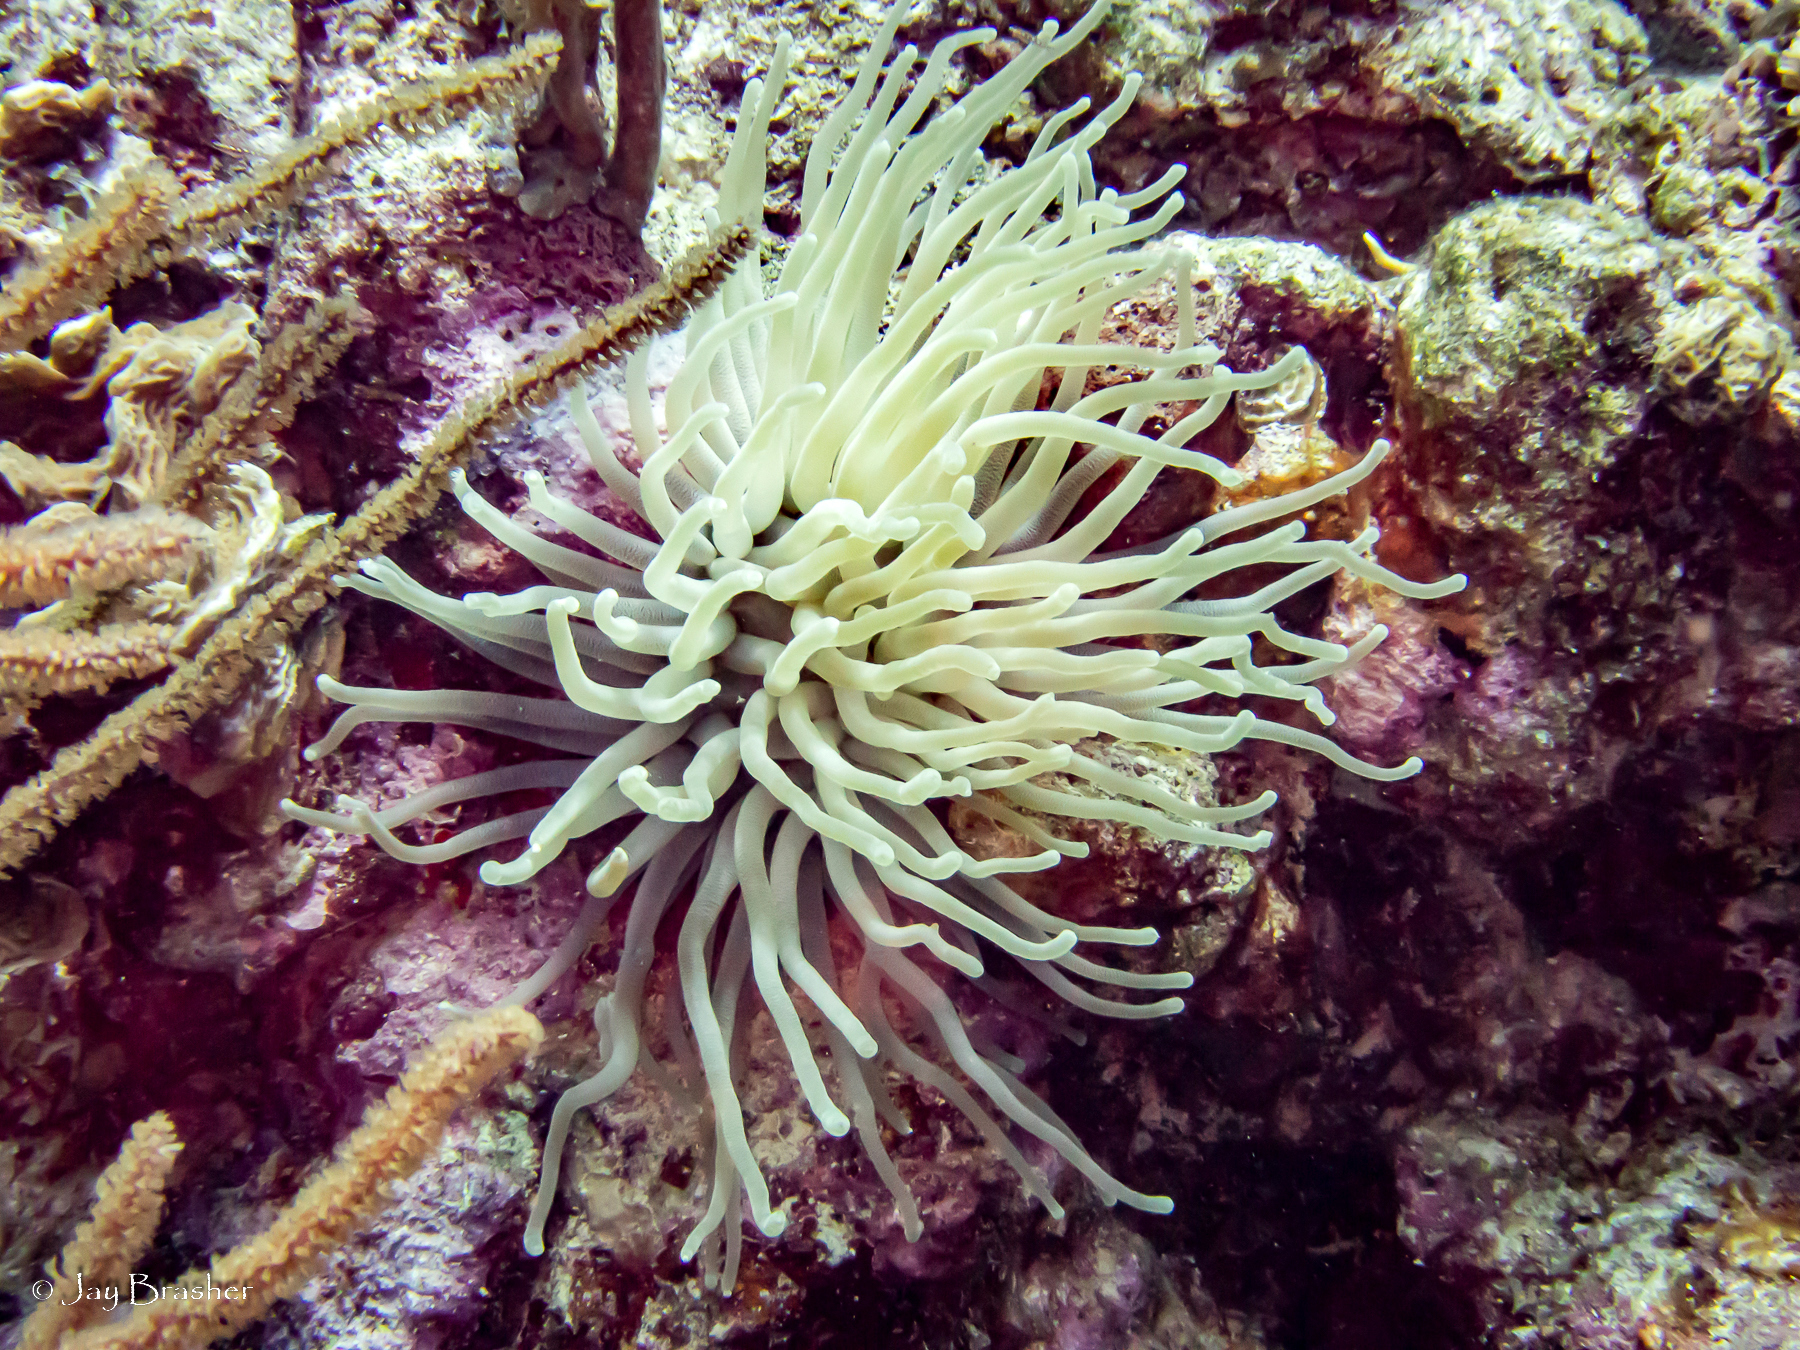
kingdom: Animalia
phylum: Cnidaria
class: Anthozoa
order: Actiniaria
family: Actiniidae
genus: Condylactis
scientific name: Condylactis gigantea
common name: Giant caribbean anemone
